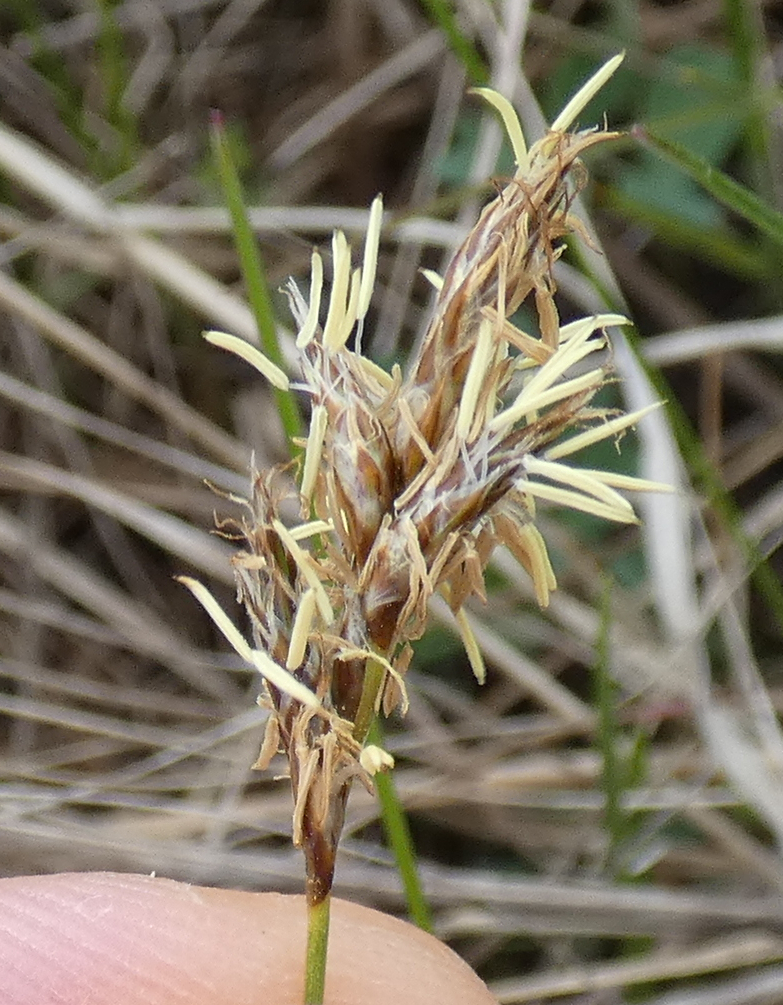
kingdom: Plantae
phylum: Tracheophyta
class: Liliopsida
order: Poales
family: Cyperaceae
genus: Carex
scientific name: Carex praecox
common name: Early sedge
